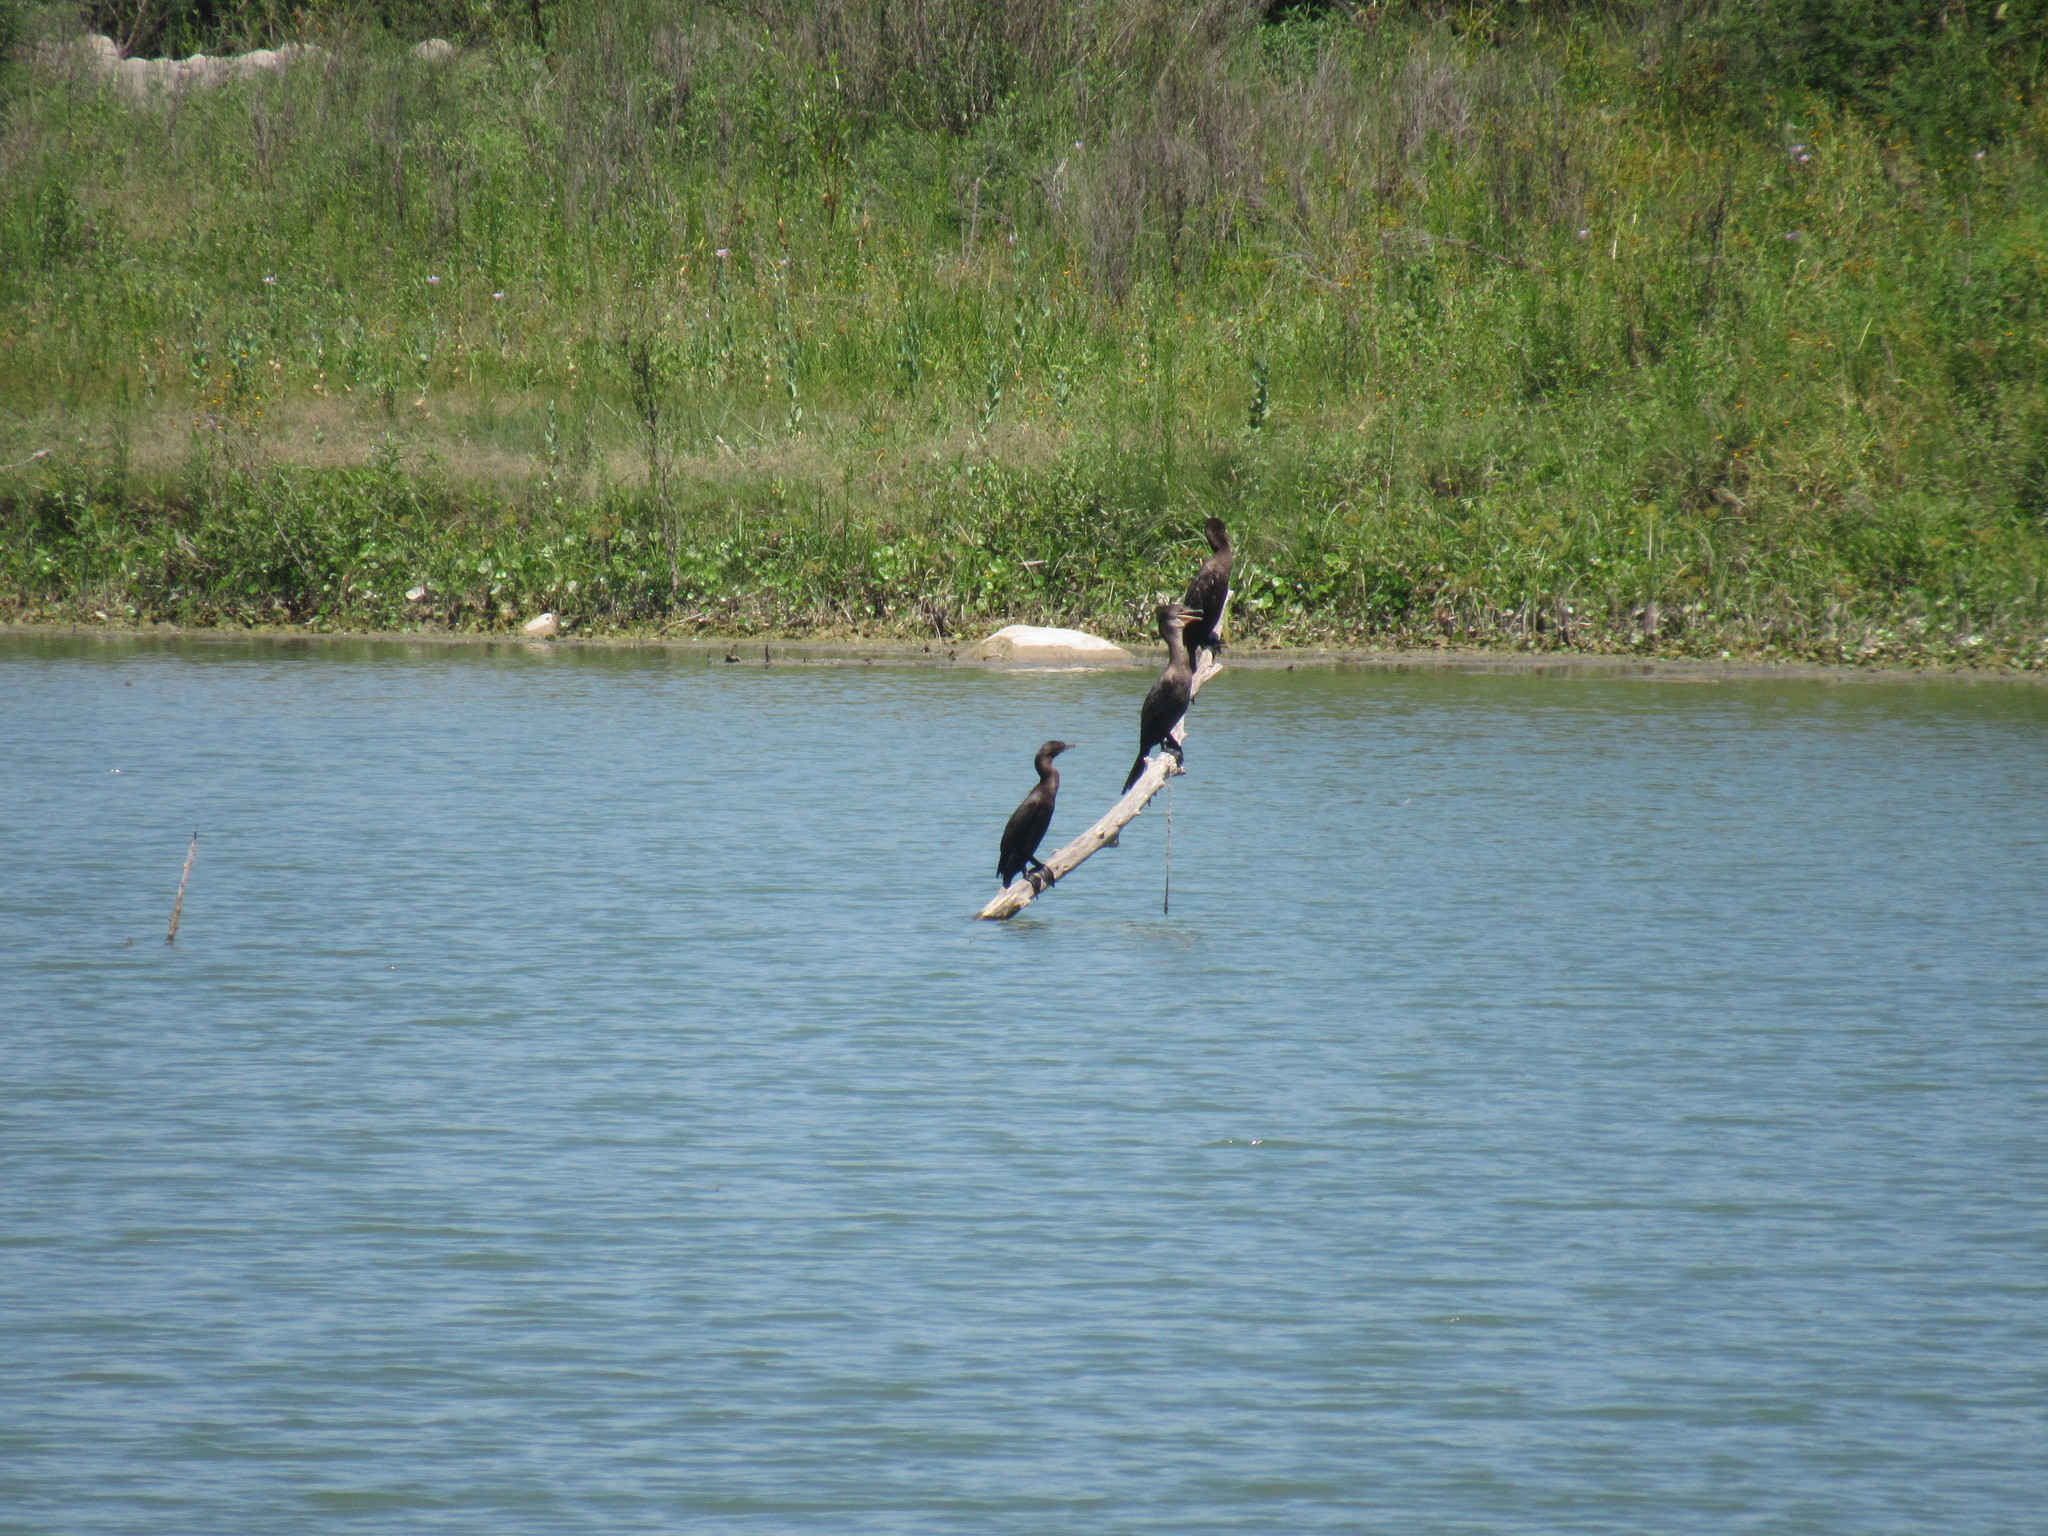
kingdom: Animalia
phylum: Chordata
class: Aves
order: Suliformes
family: Phalacrocoracidae
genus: Phalacrocorax
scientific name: Phalacrocorax brasilianus
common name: Neotropic cormorant
